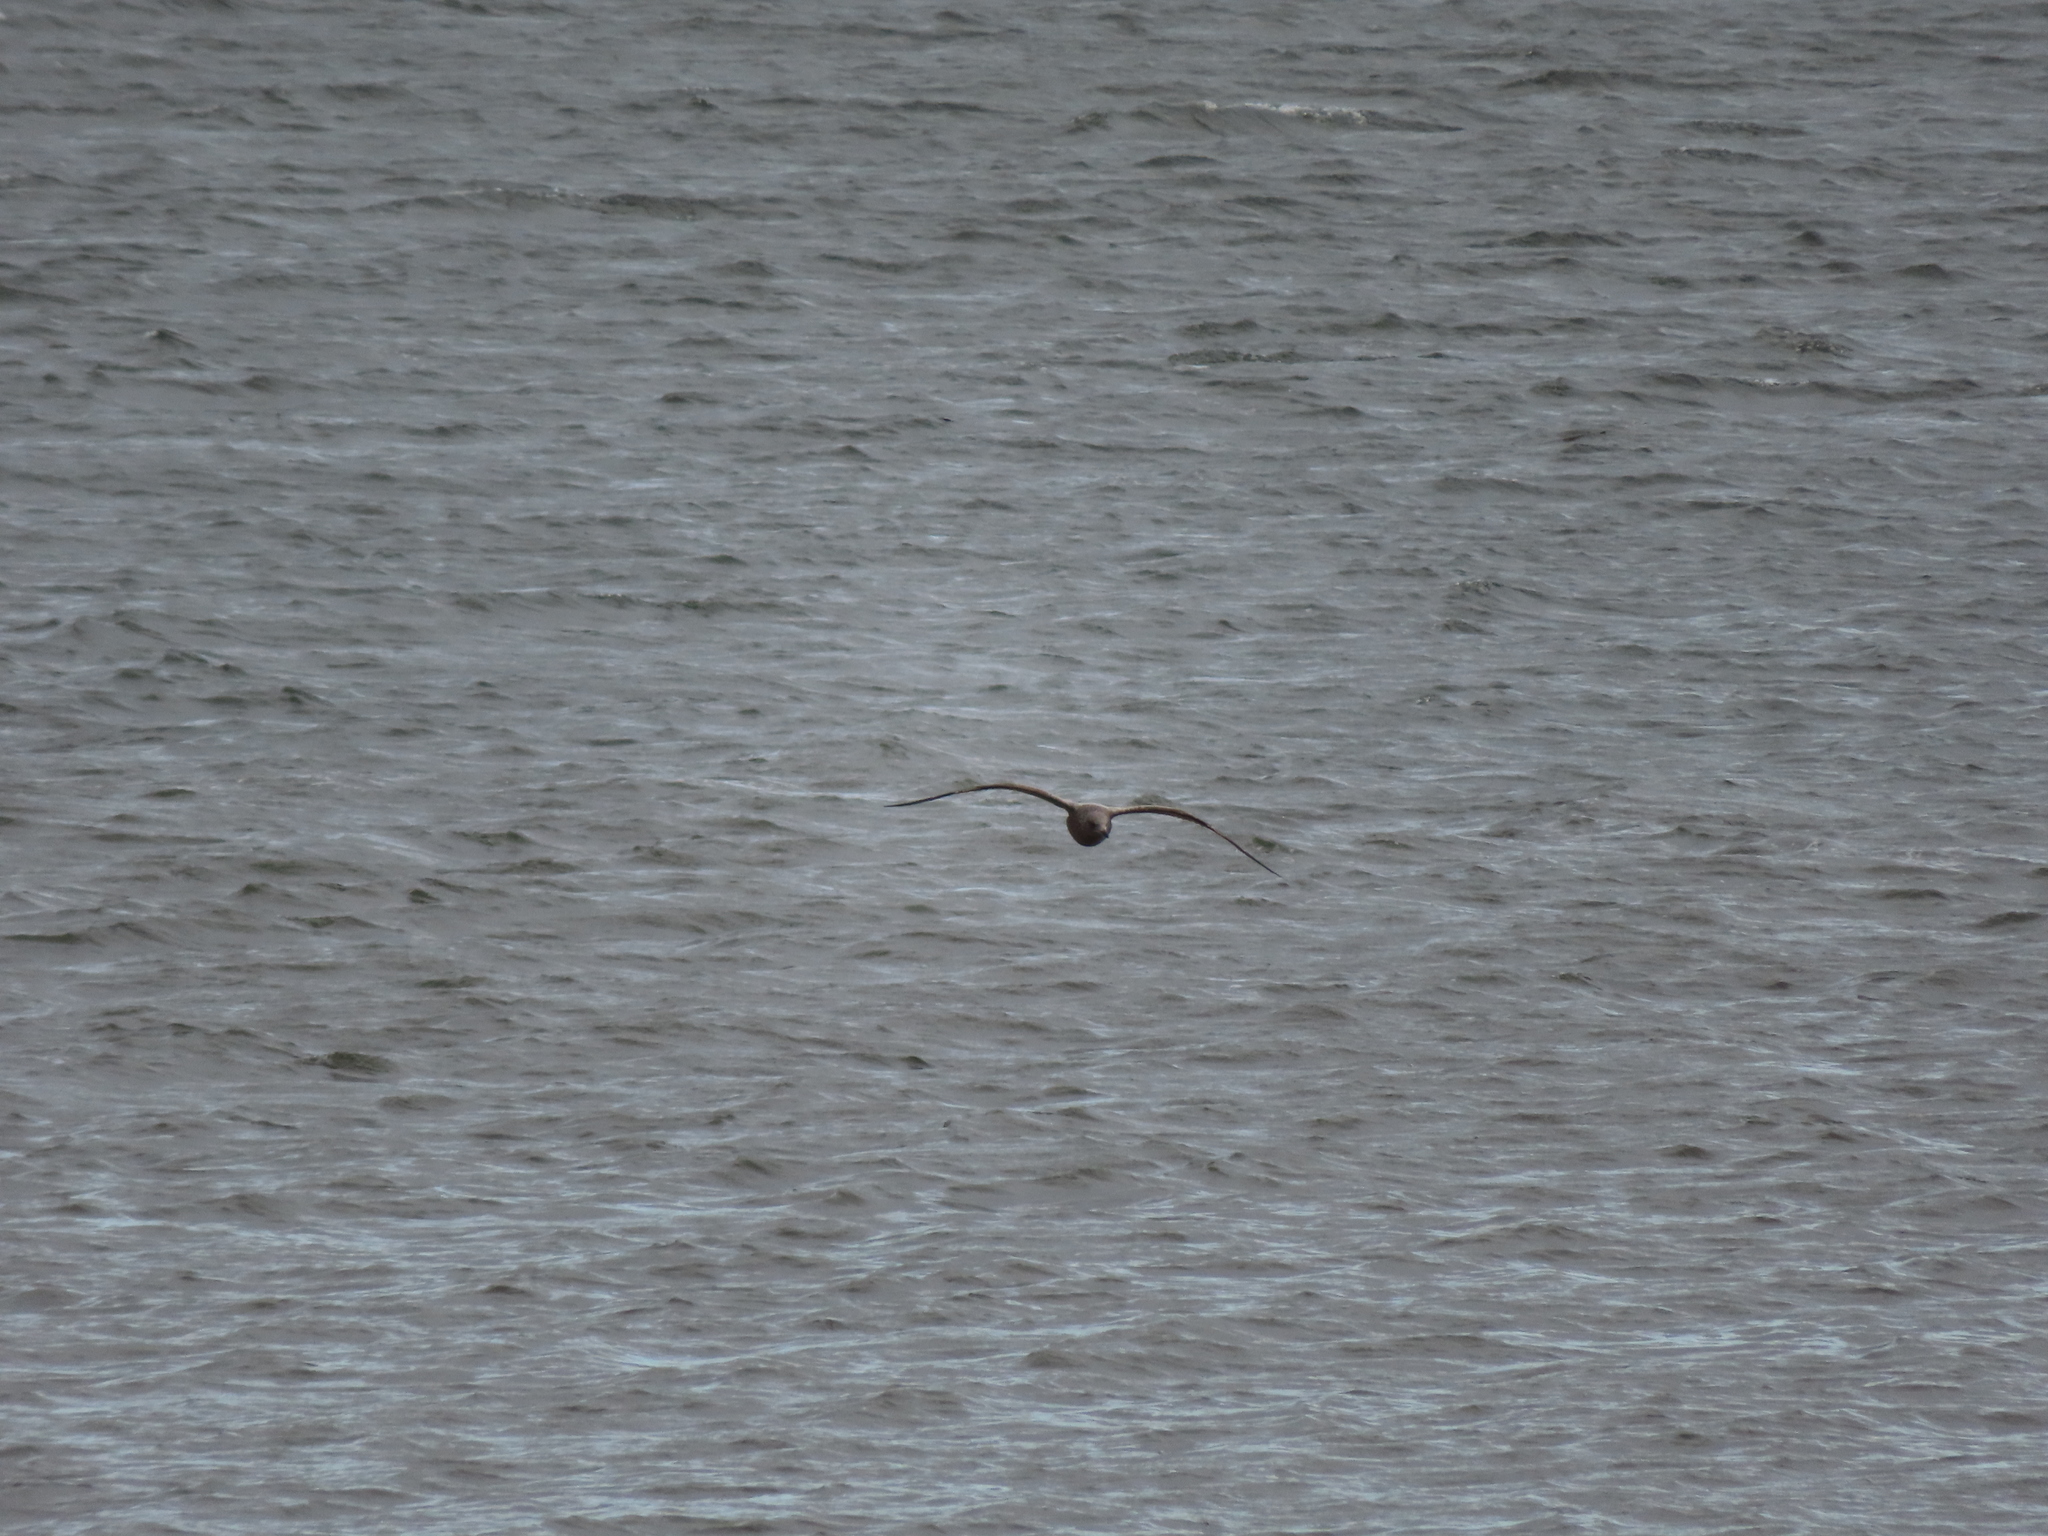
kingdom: Animalia
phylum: Chordata
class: Aves
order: Charadriiformes
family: Laridae
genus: Larus
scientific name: Larus argentatus
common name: Herring gull
